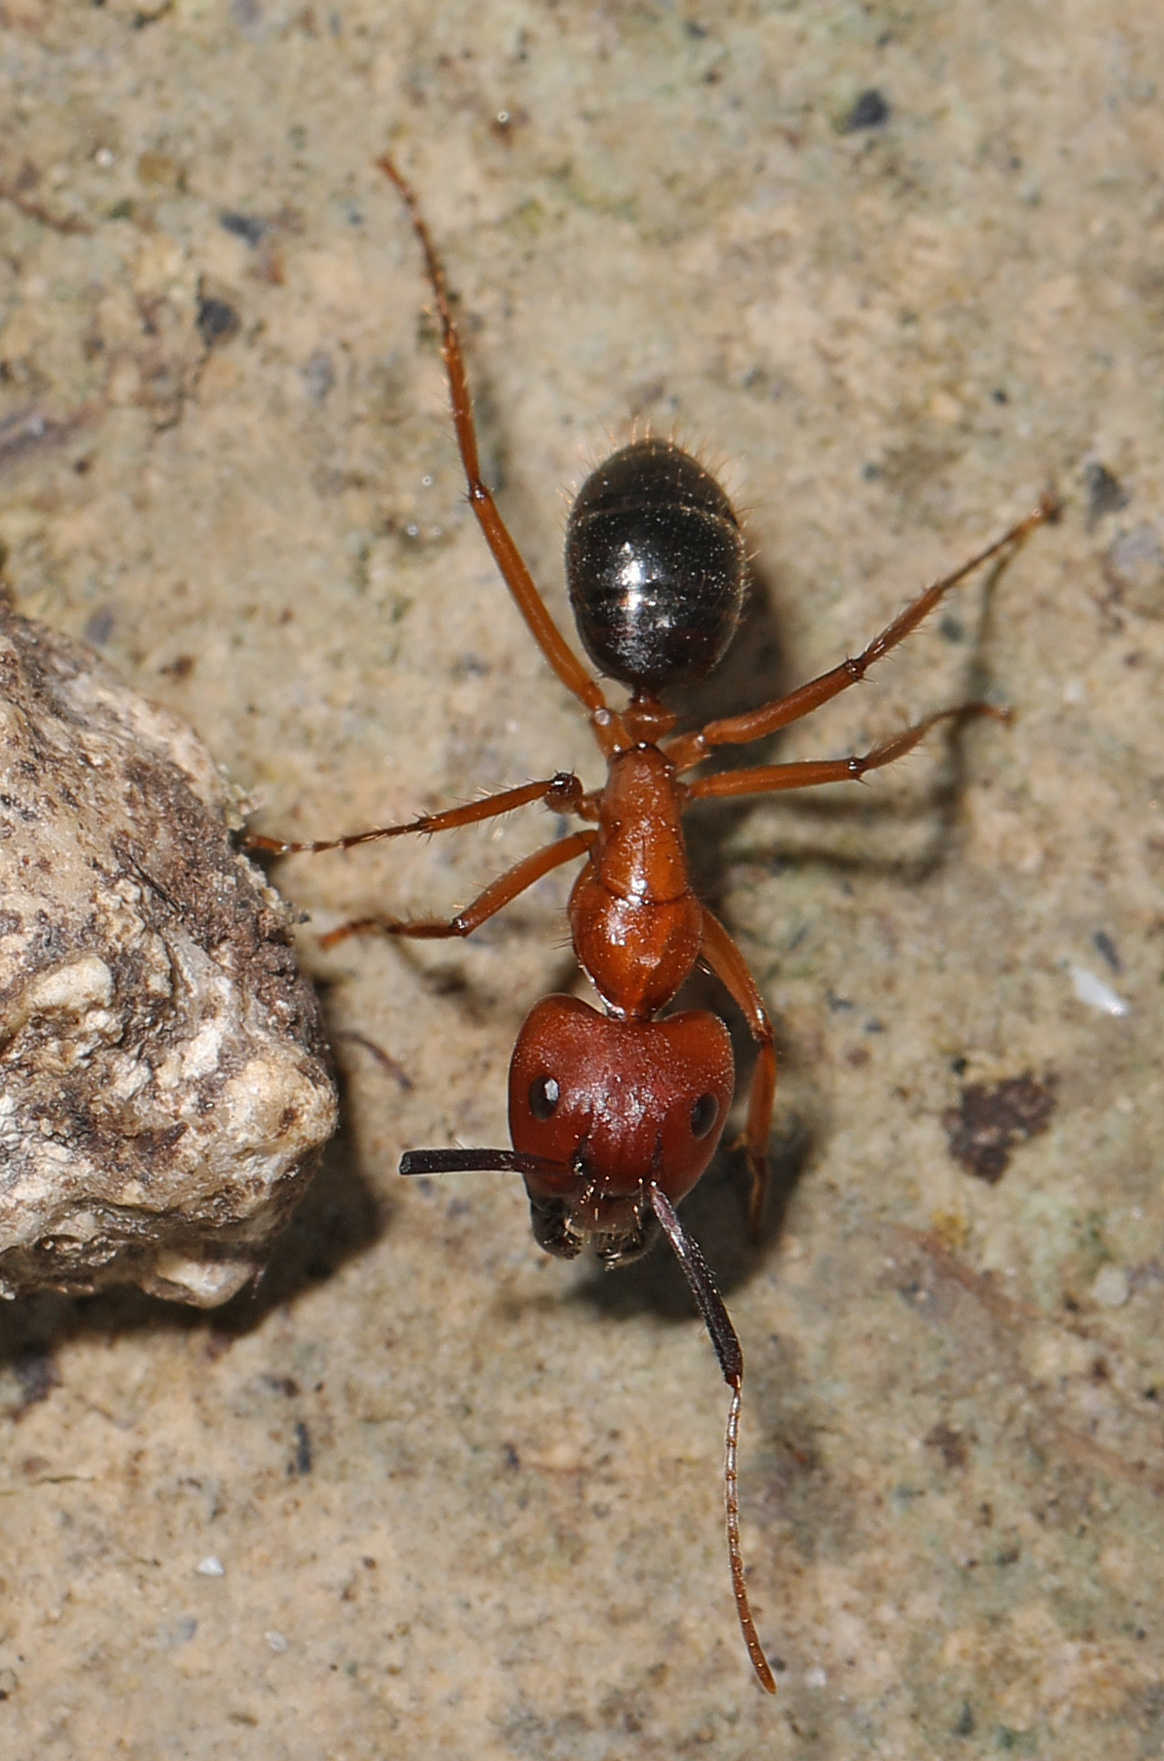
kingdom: Animalia
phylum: Arthropoda
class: Insecta
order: Hymenoptera
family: Formicidae
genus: Camponotus
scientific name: Camponotus floridanus
